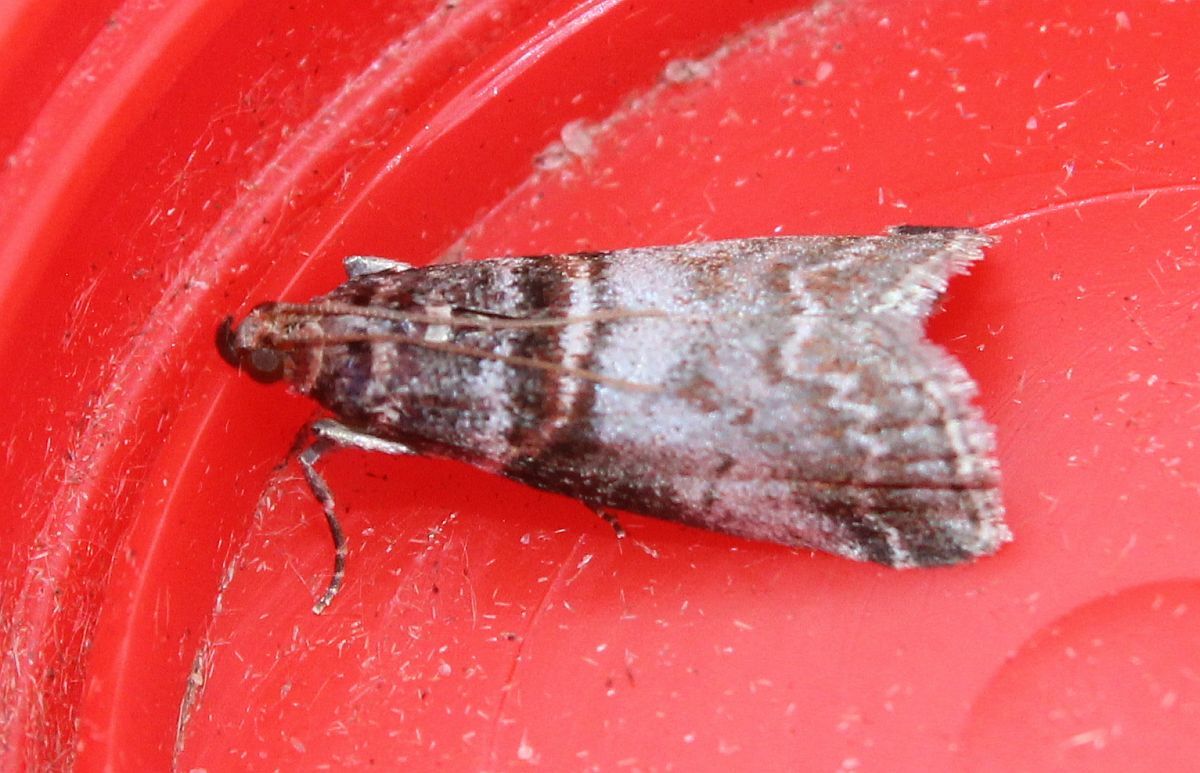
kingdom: Animalia
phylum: Arthropoda
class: Insecta
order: Lepidoptera
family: Pyralidae
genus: Acrobasis
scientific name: Acrobasis advenella
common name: Grey knot-horn
